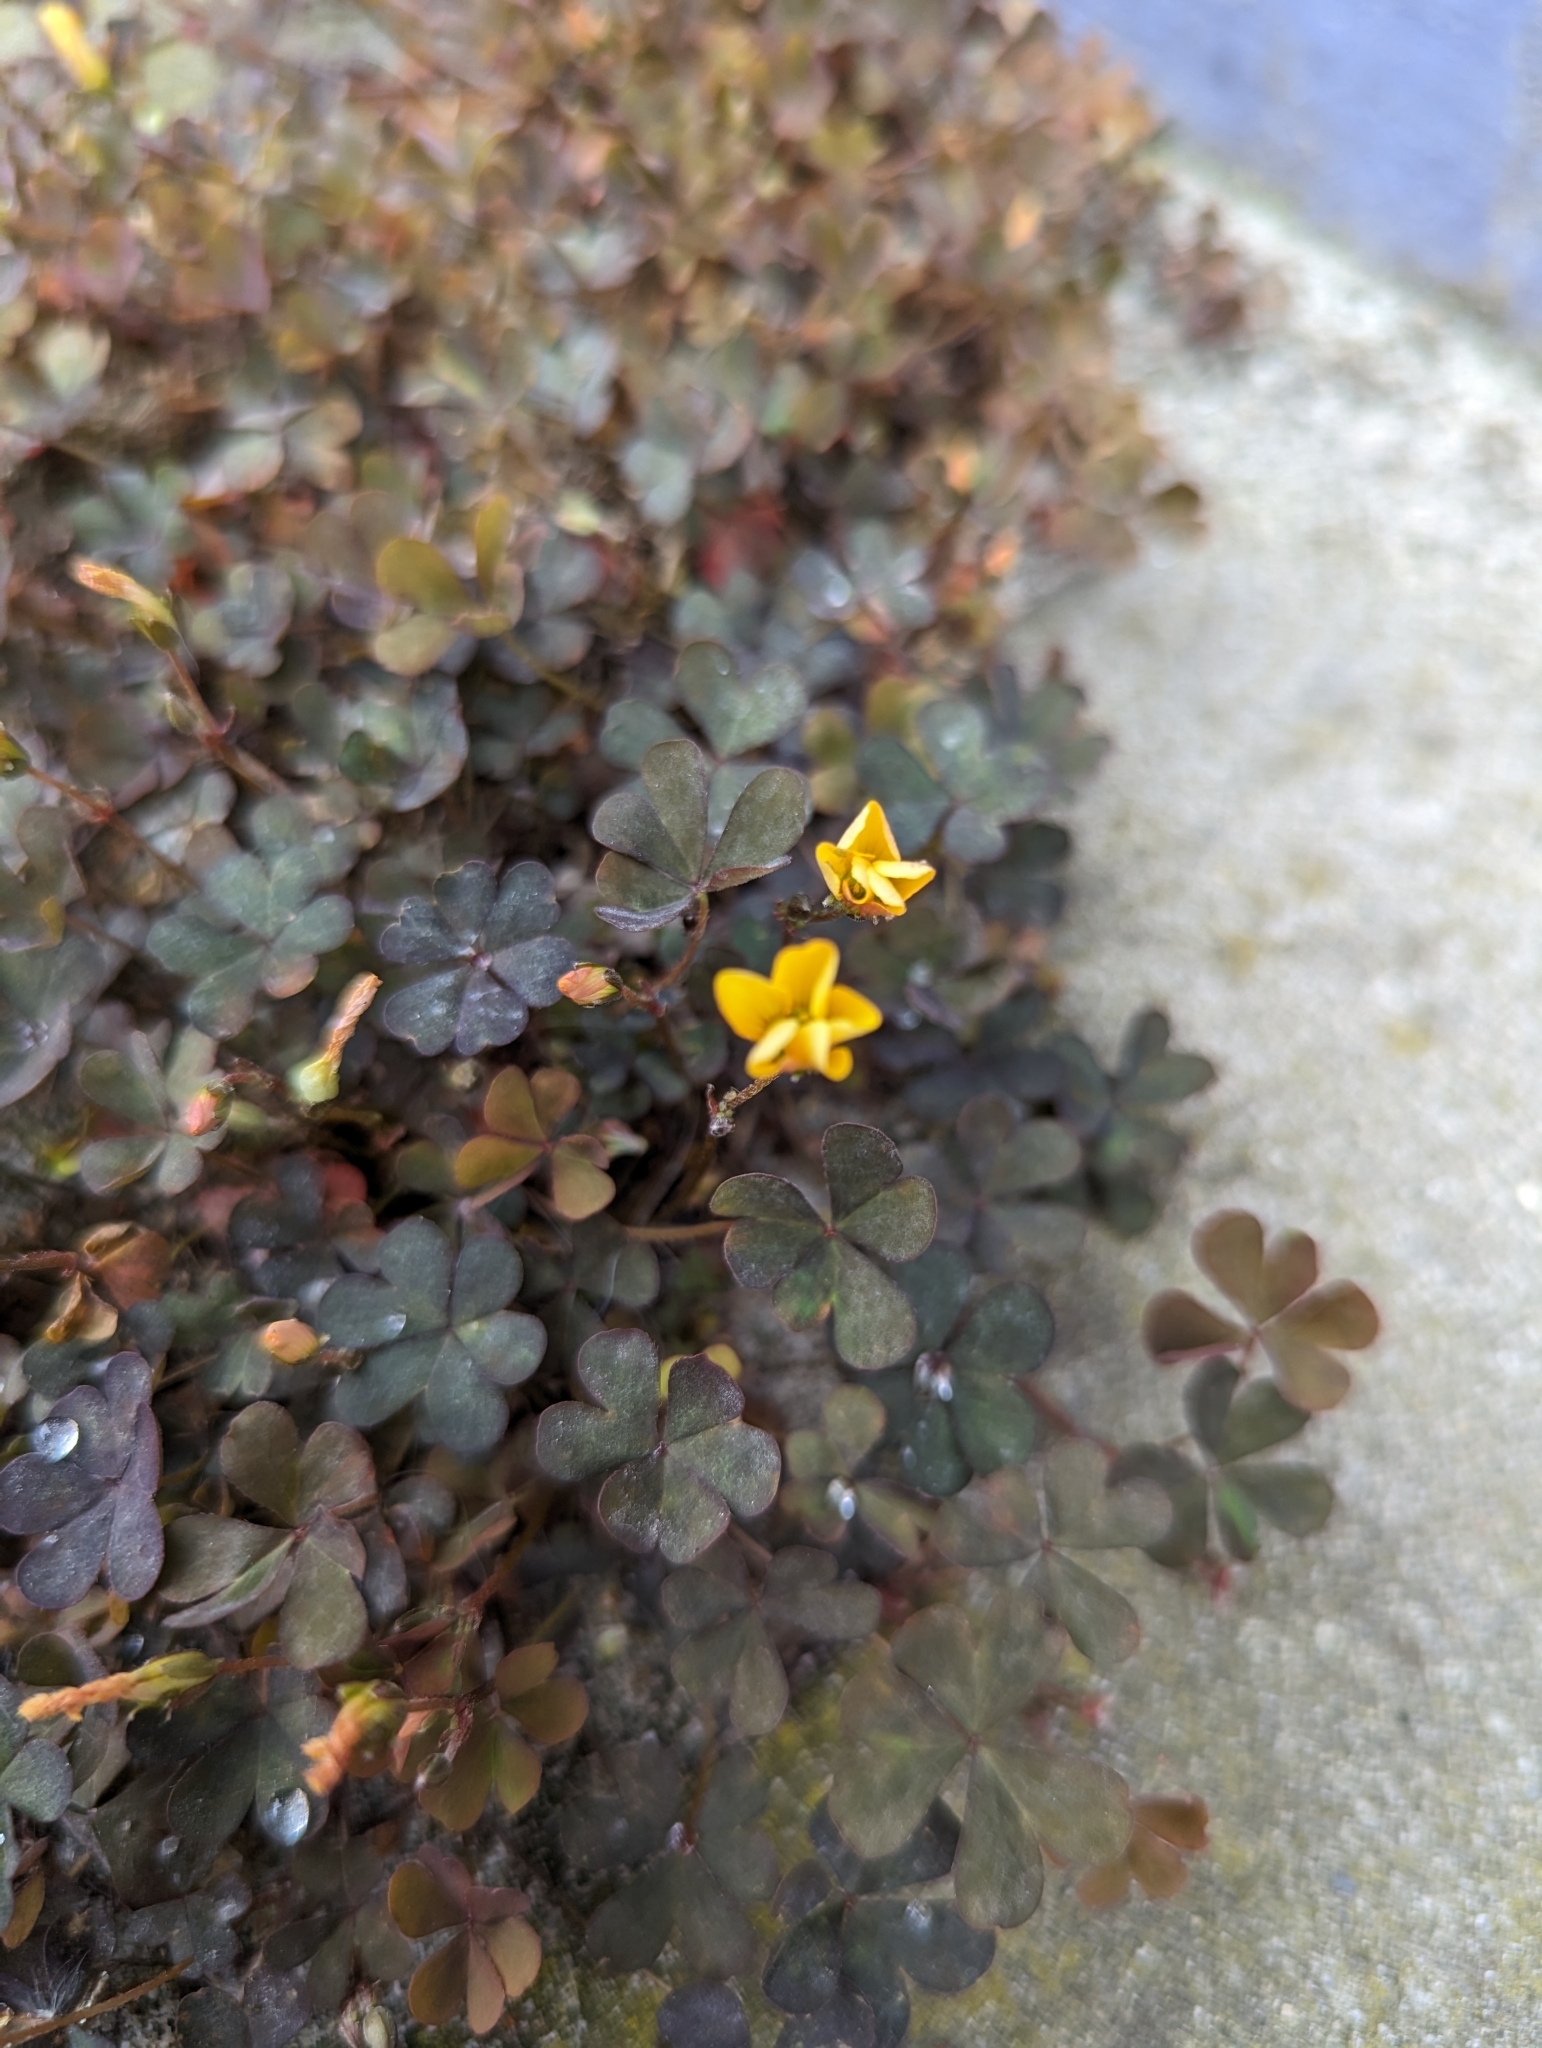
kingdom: Plantae
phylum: Tracheophyta
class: Magnoliopsida
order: Oxalidales
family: Oxalidaceae
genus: Oxalis
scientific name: Oxalis corniculata
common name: Procumbent yellow-sorrel
